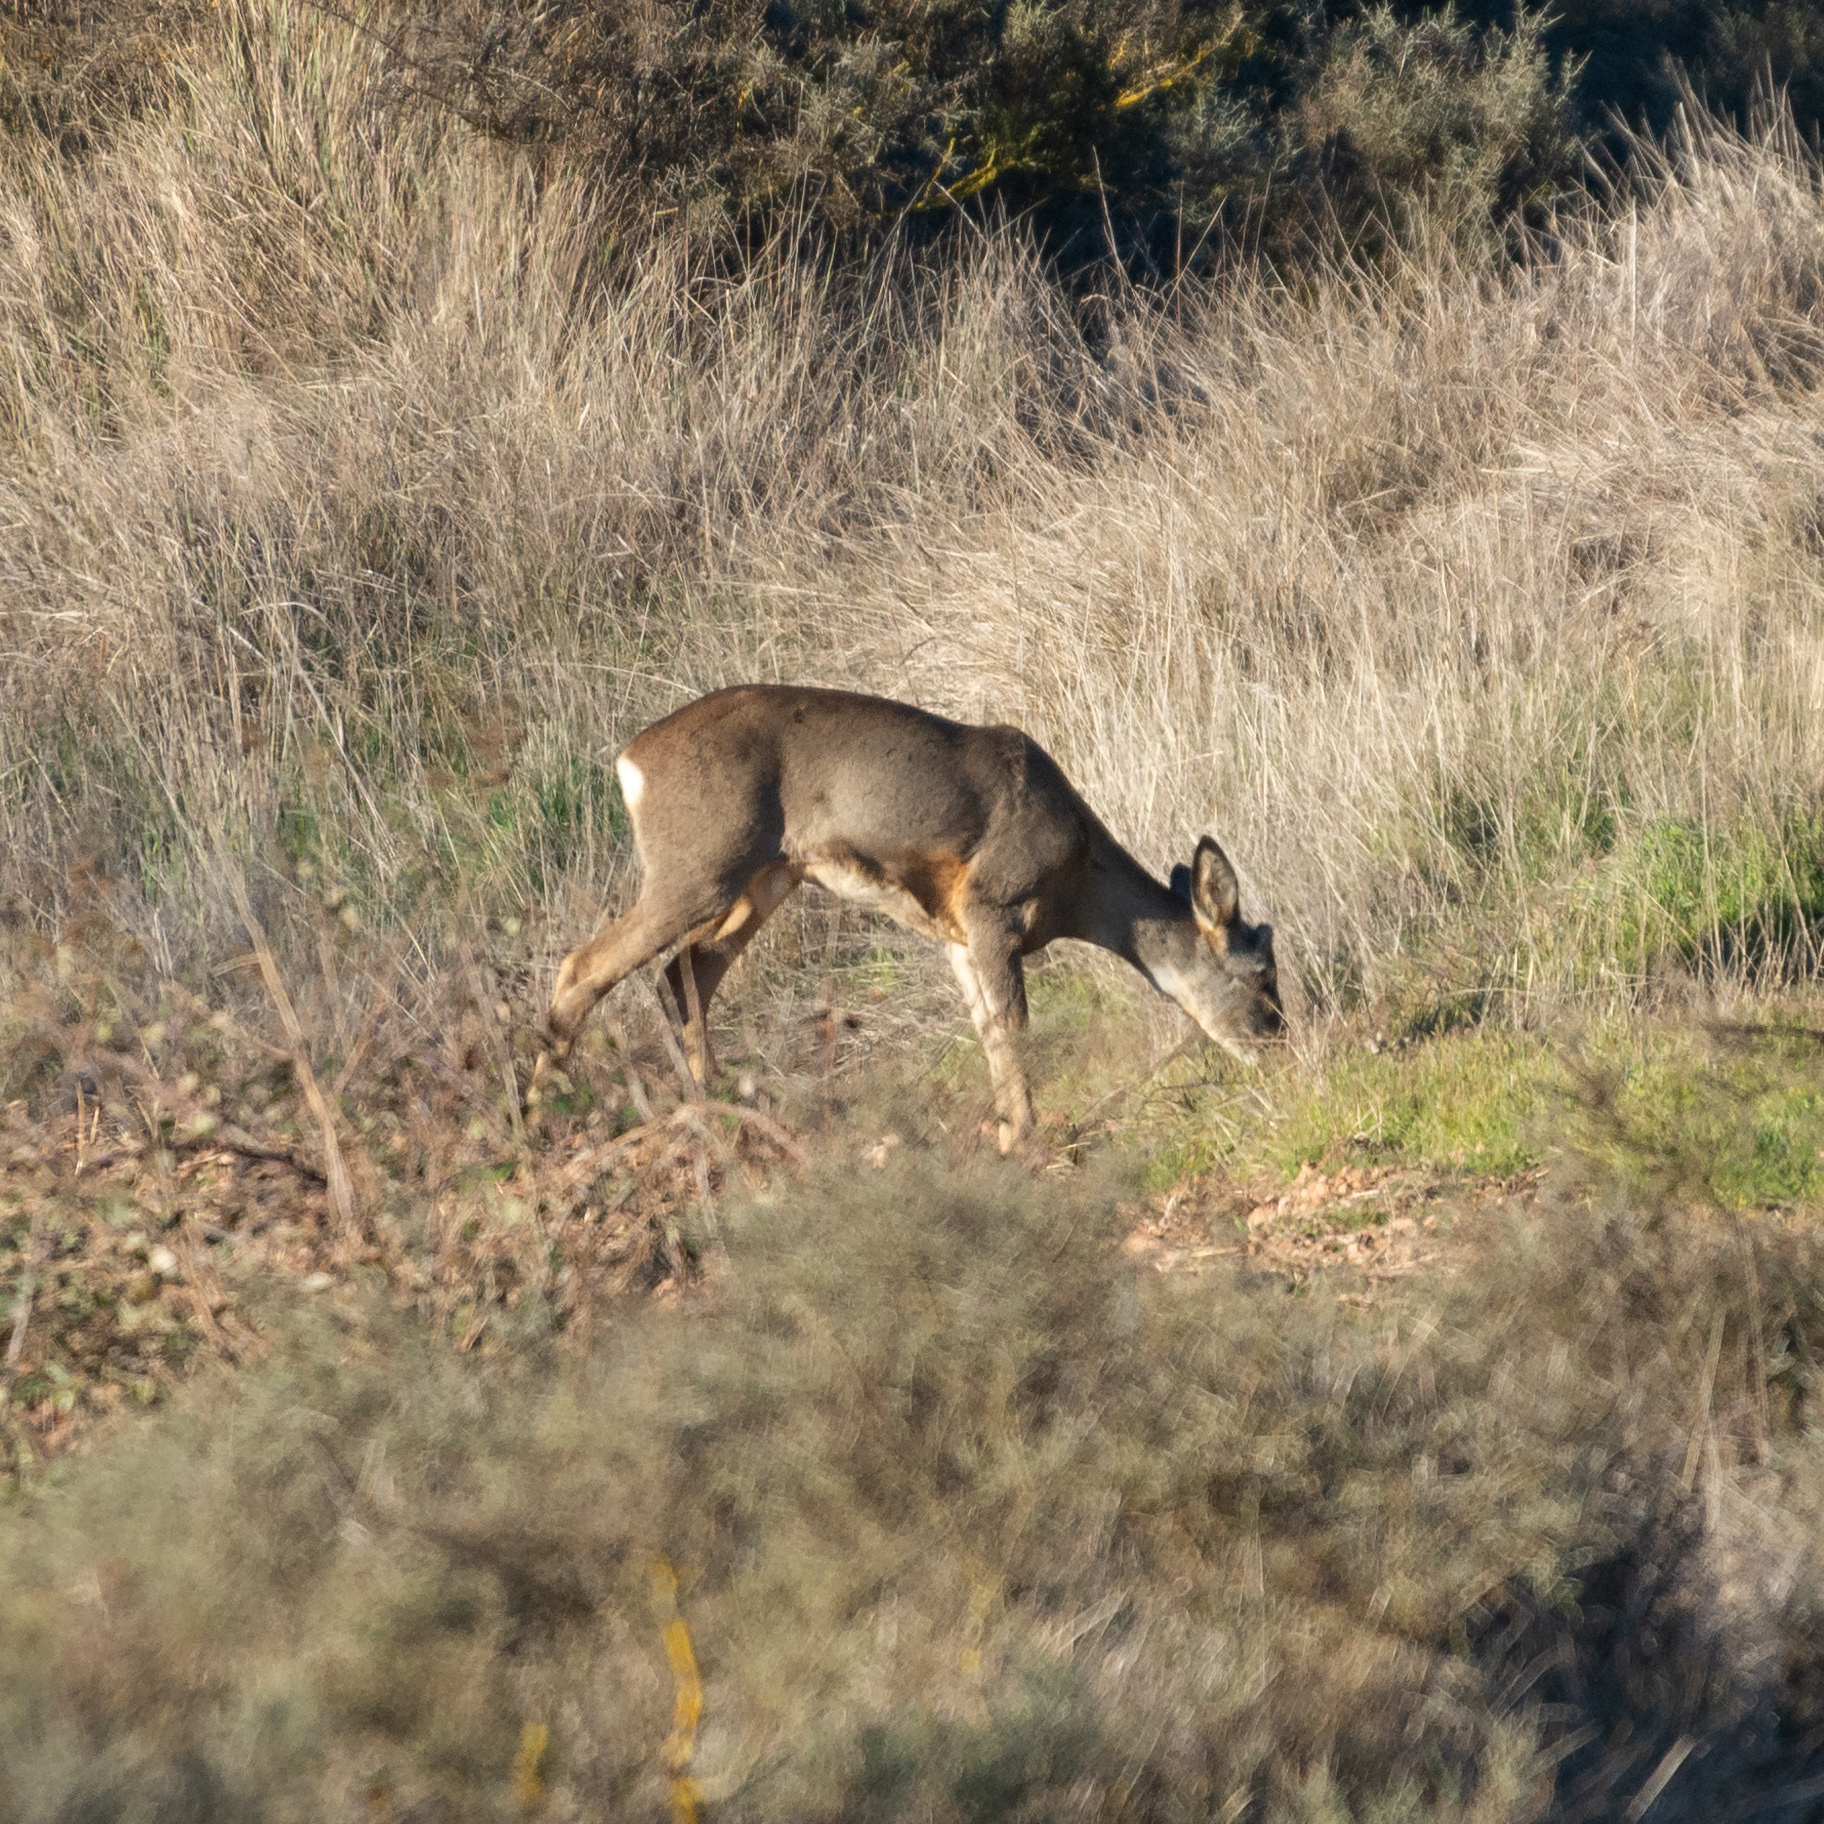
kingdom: Animalia
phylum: Chordata
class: Mammalia
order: Artiodactyla
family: Cervidae
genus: Capreolus
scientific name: Capreolus capreolus
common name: Western roe deer
